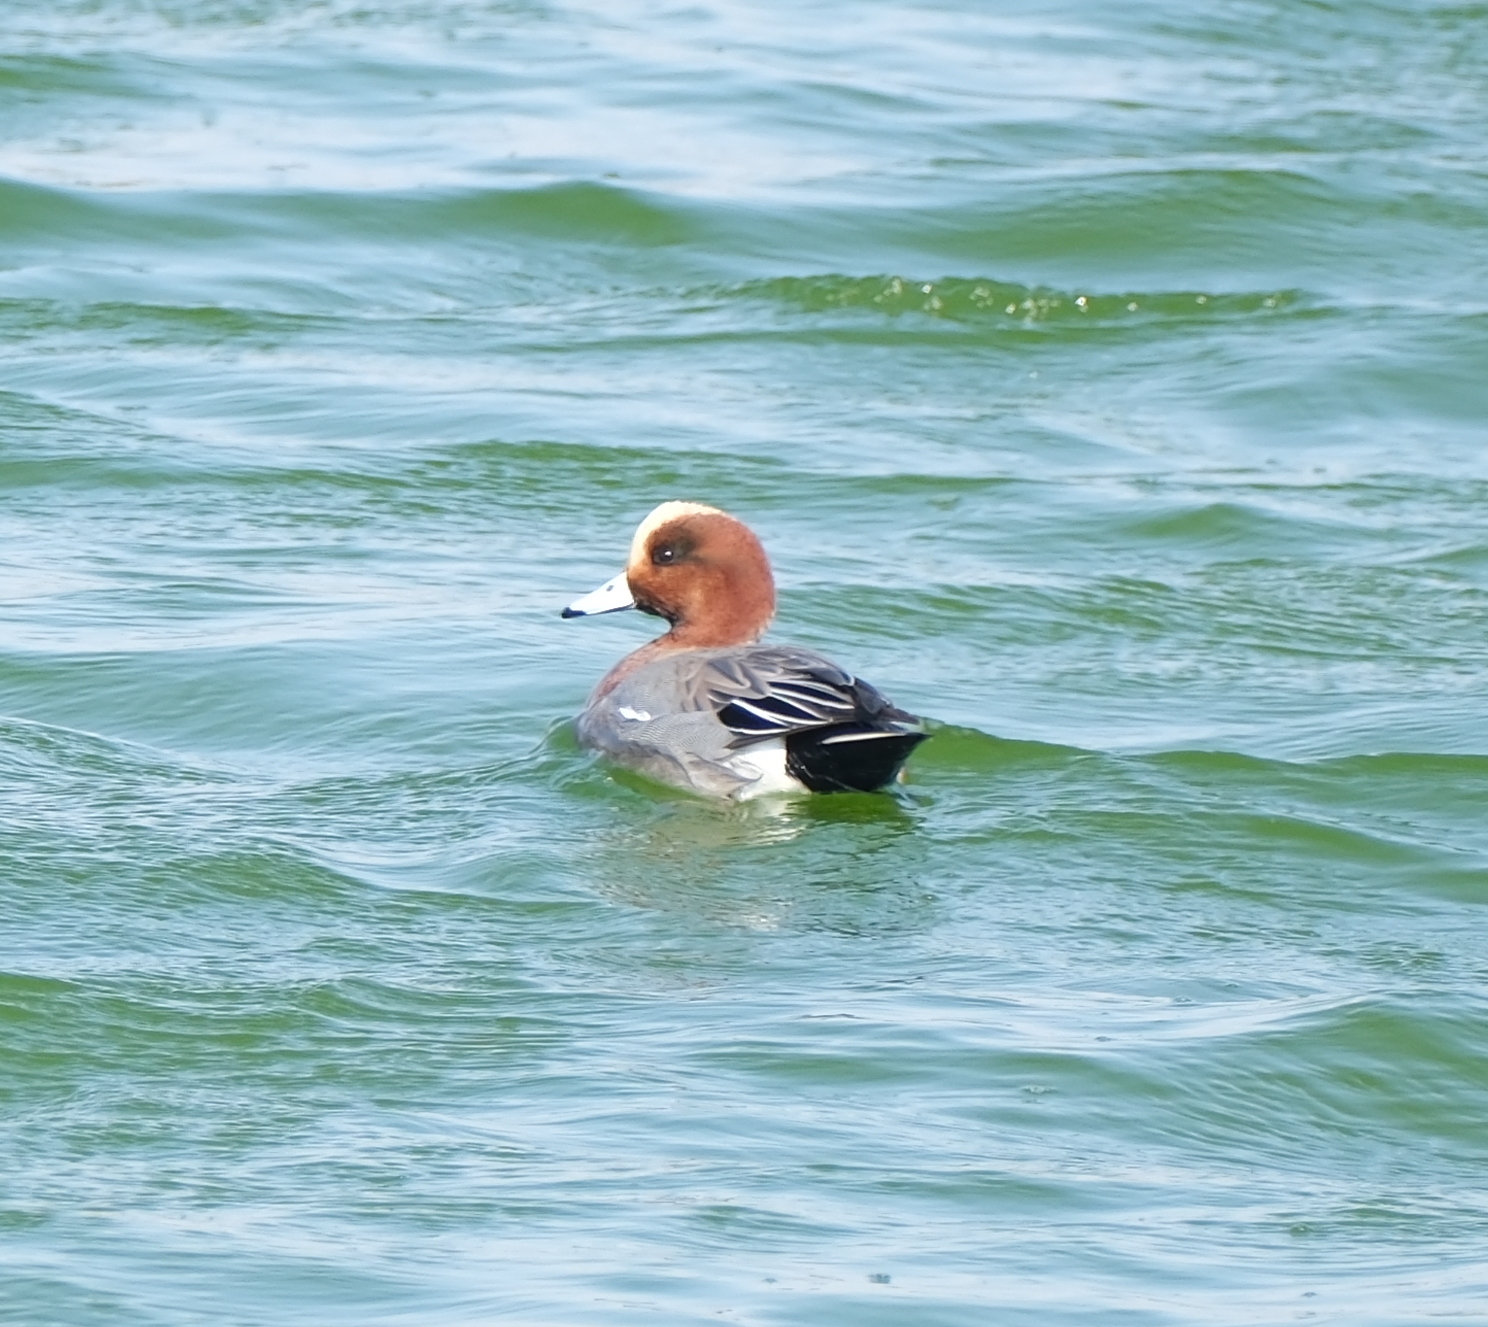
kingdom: Animalia
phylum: Chordata
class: Aves
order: Anseriformes
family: Anatidae
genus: Mareca
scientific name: Mareca penelope
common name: Eurasian wigeon
